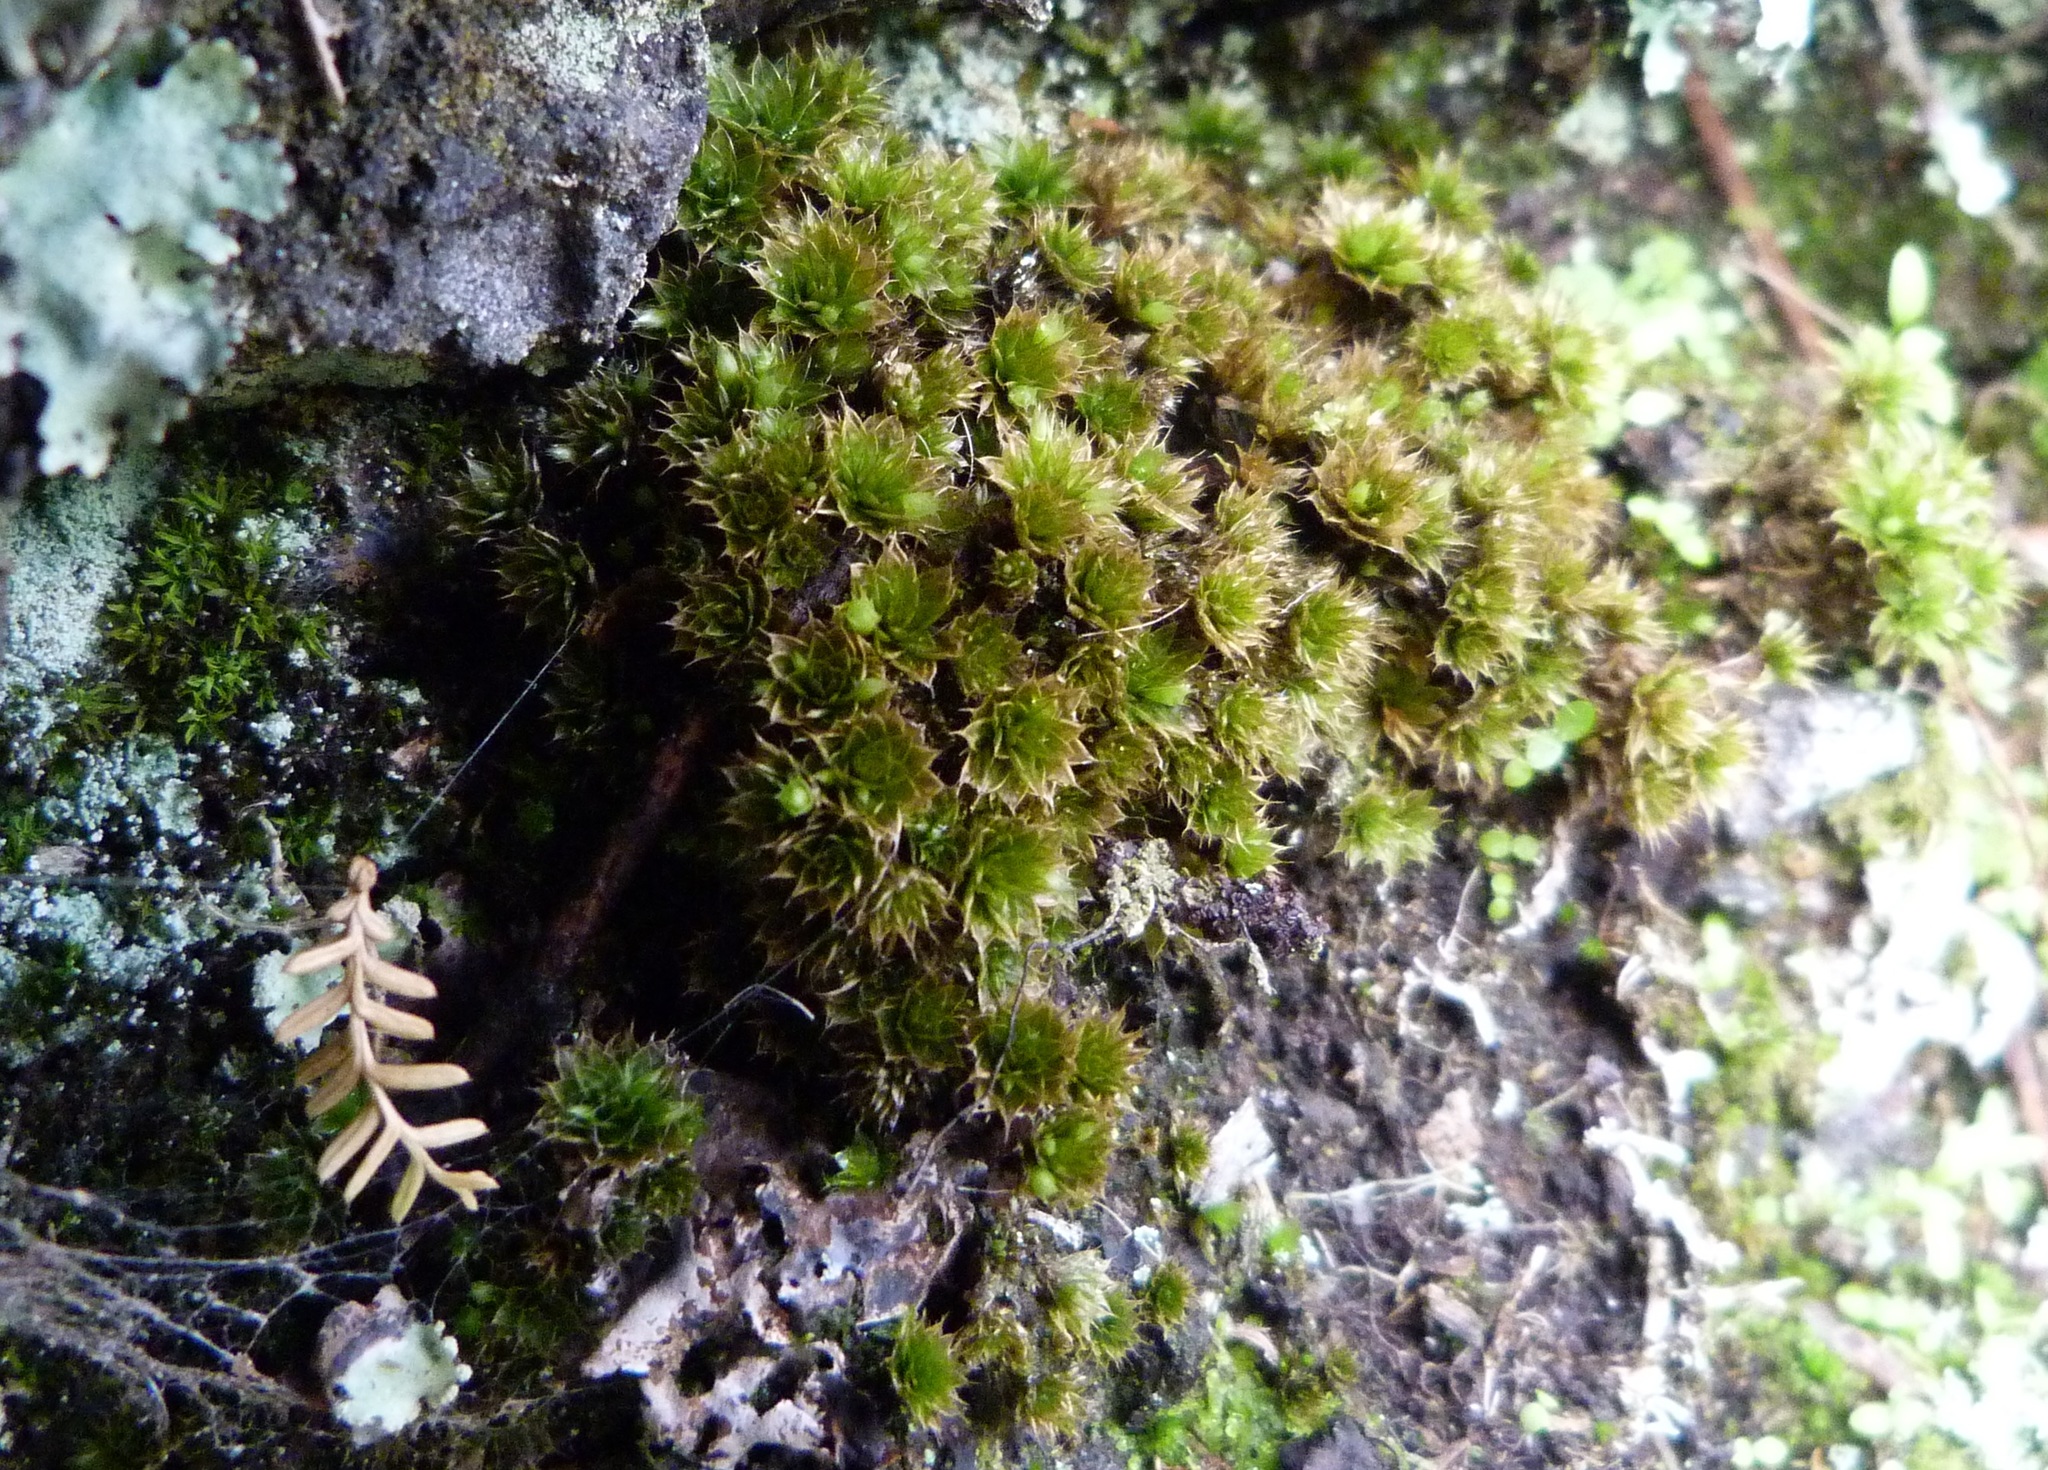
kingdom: Plantae
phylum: Bryophyta
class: Bryopsida
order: Bryales
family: Bryaceae
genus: Rosulabryum
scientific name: Rosulabryum billardierei
